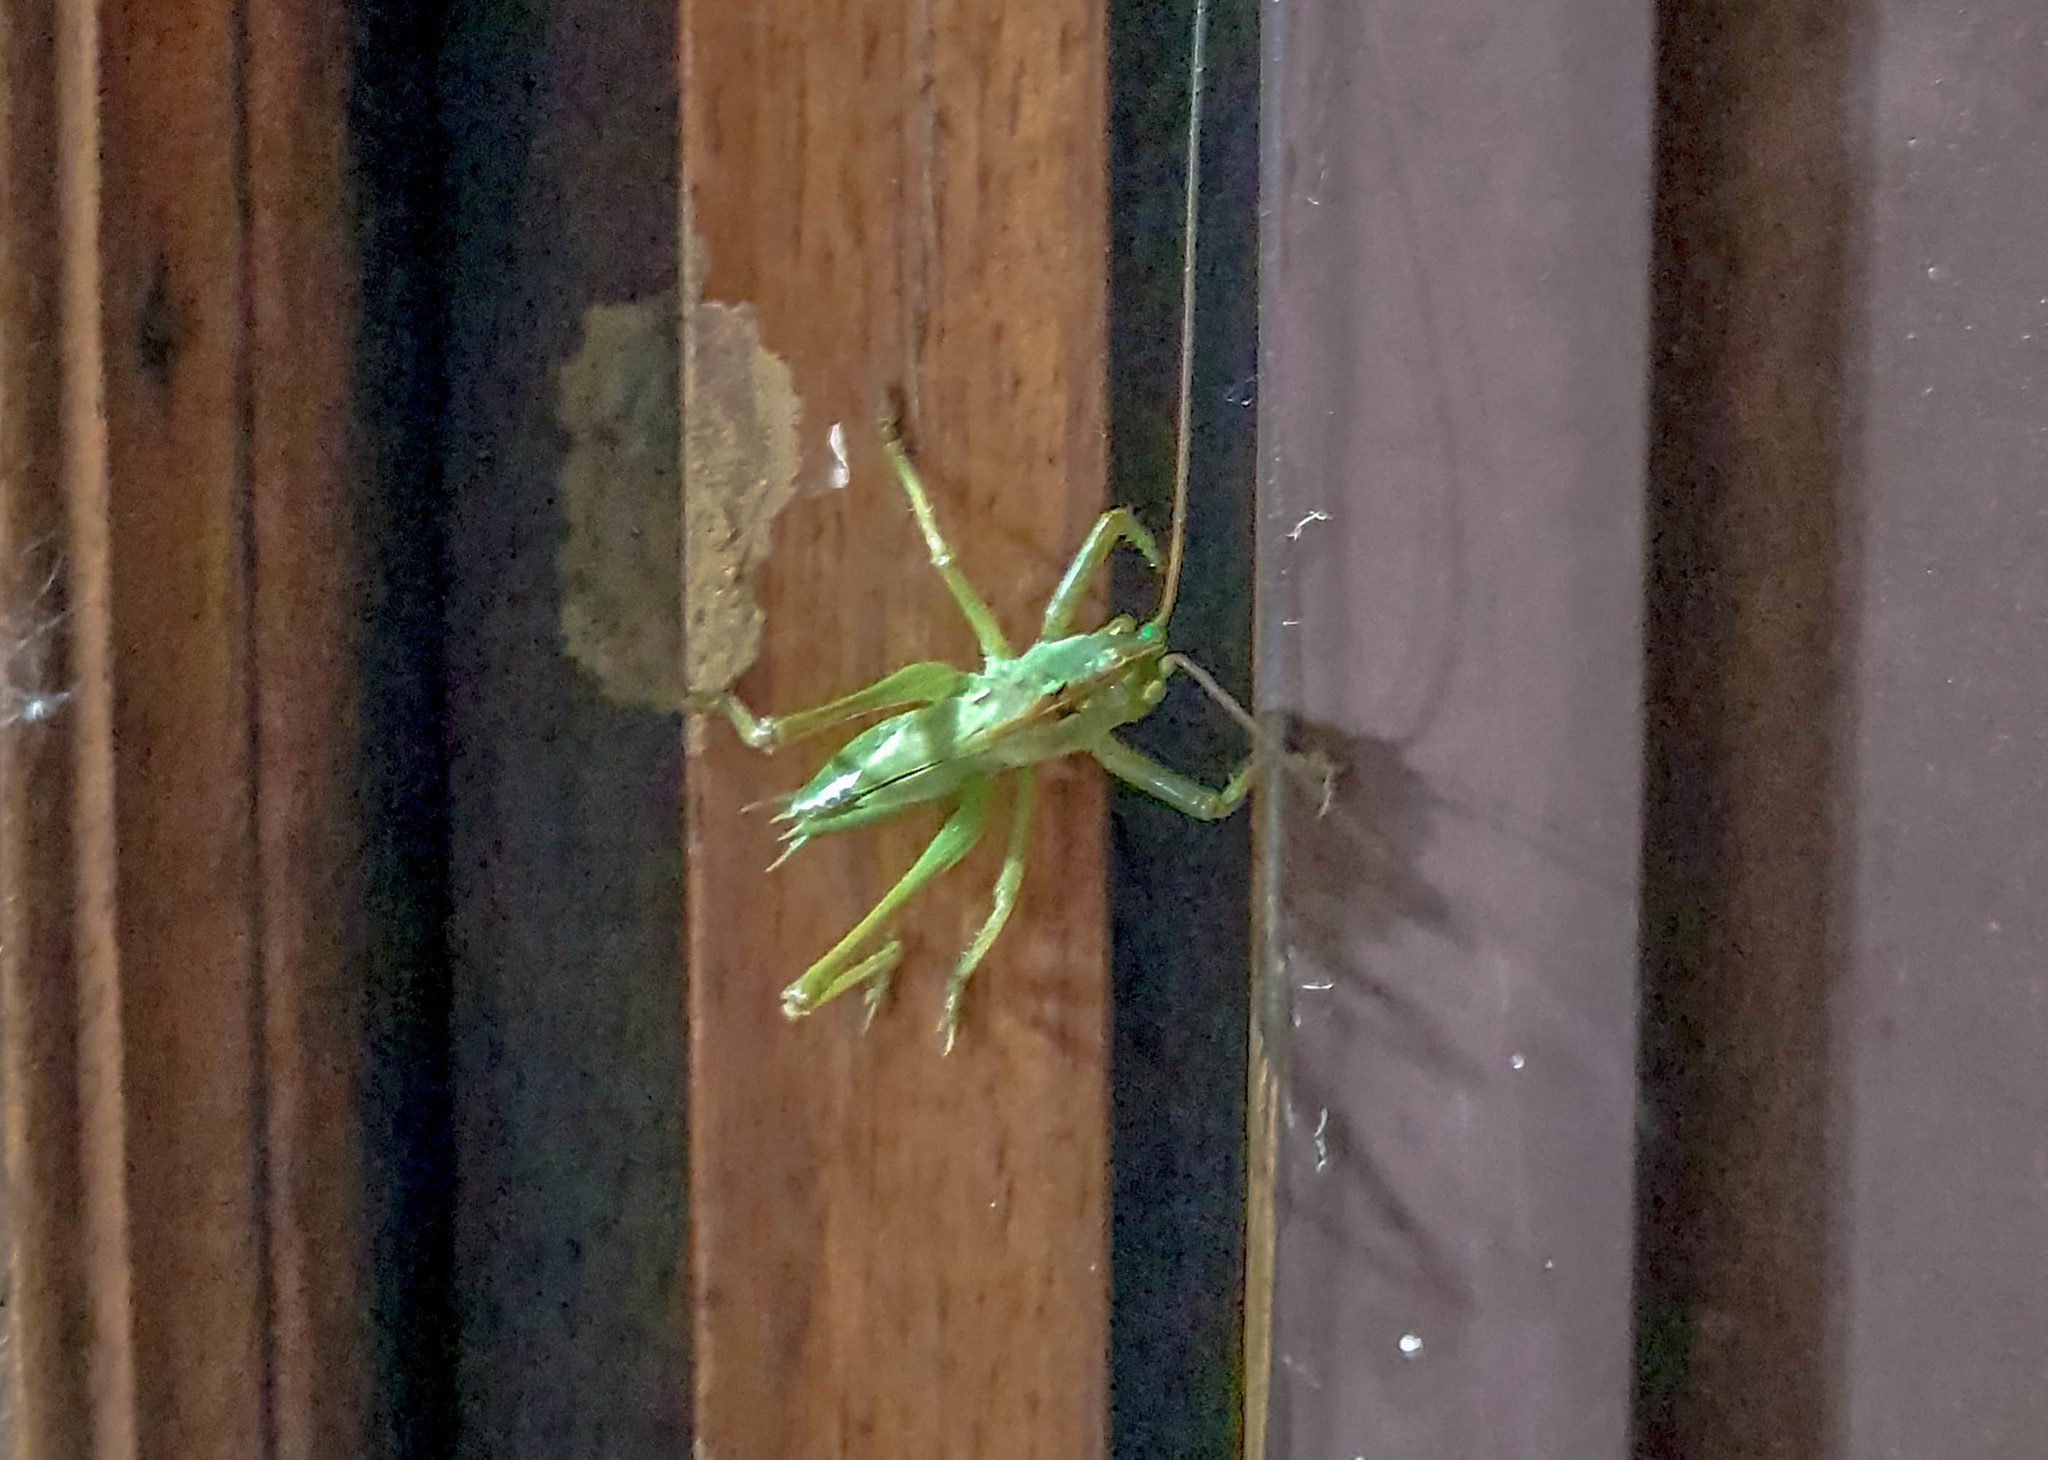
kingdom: Animalia
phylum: Arthropoda
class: Insecta
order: Orthoptera
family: Tettigoniidae
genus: Tettigonia
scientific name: Tettigonia viridissima
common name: Great green bush-cricket
